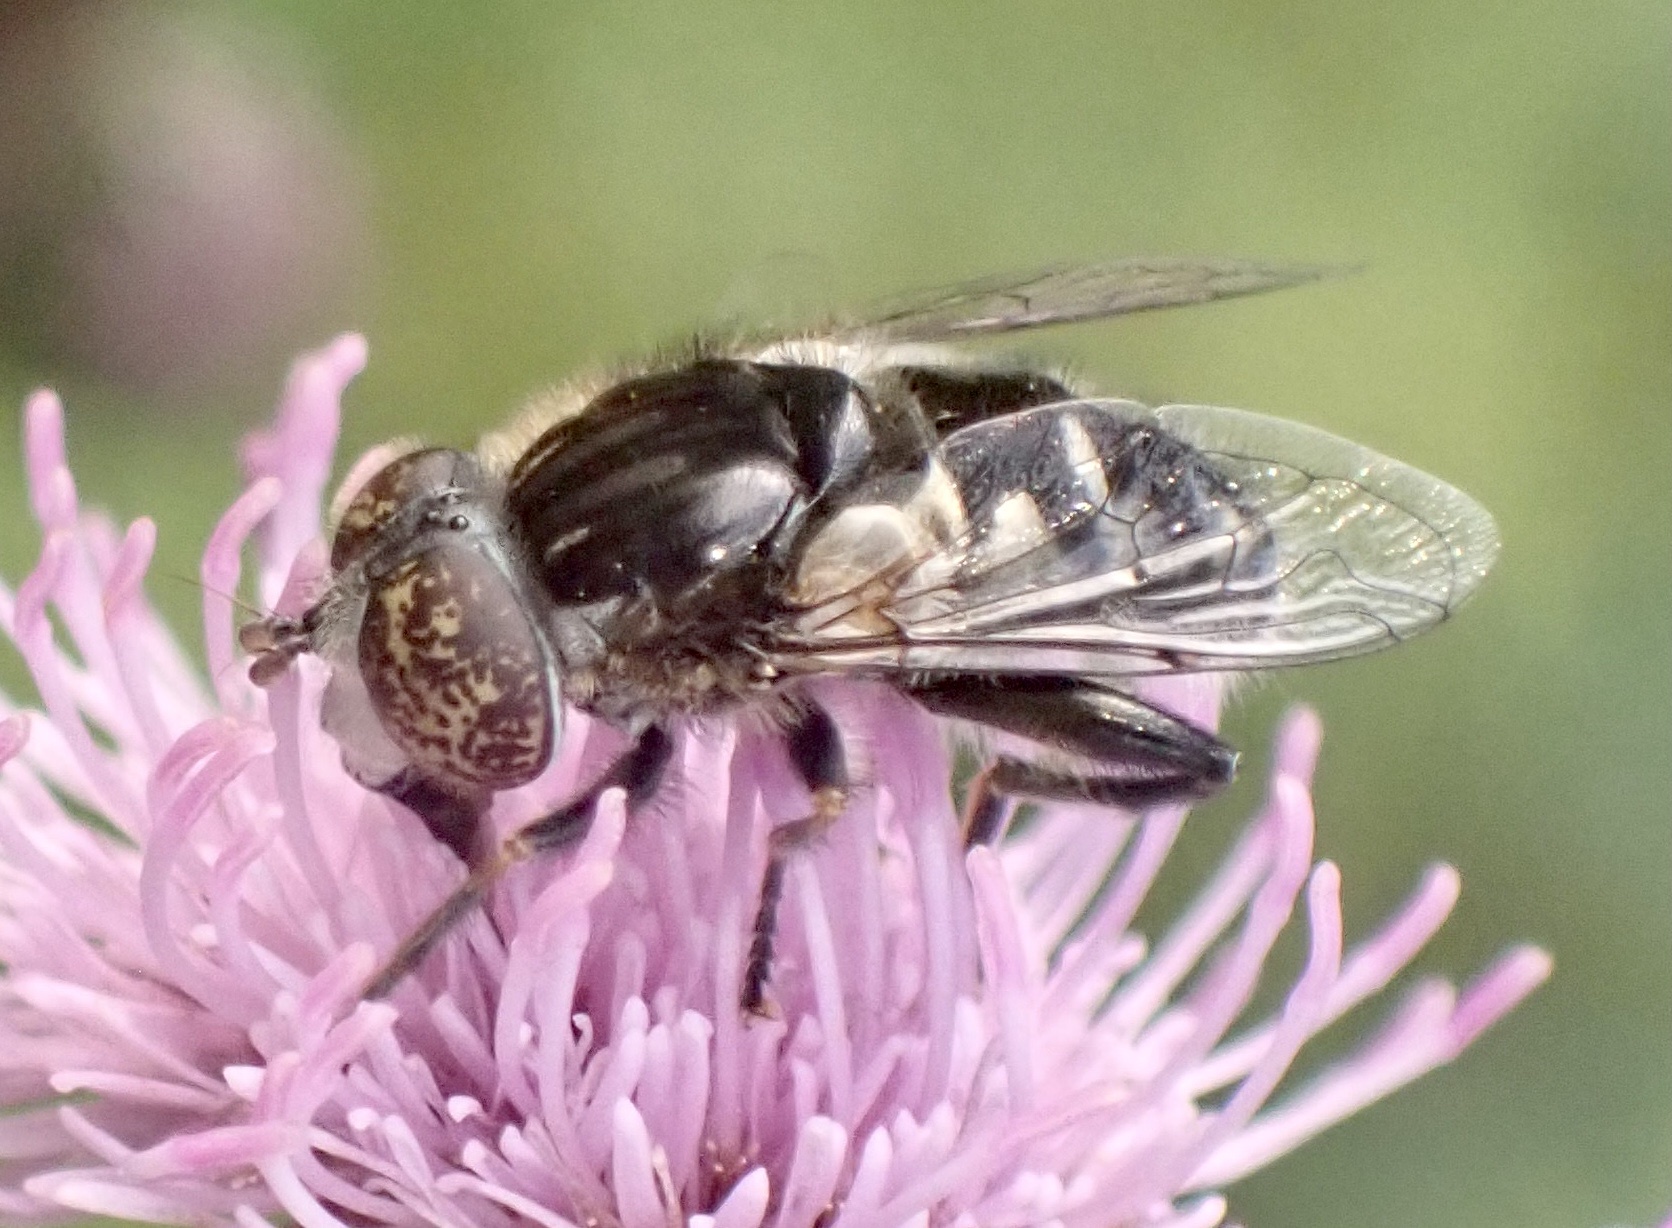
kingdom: Animalia
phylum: Arthropoda
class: Insecta
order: Diptera
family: Syrphidae
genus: Eristalinus
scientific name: Eristalinus sepulchralis
